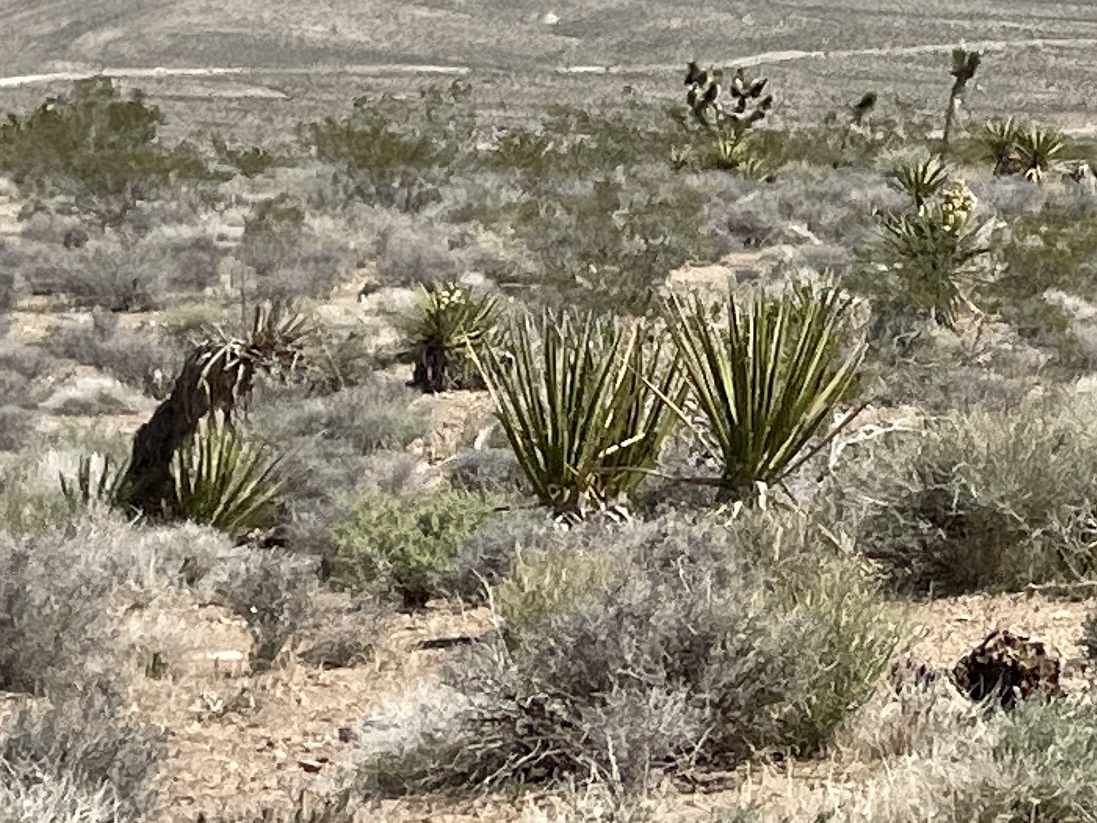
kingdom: Plantae
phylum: Tracheophyta
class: Liliopsida
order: Asparagales
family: Asparagaceae
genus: Yucca
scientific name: Yucca schidigera
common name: Mojave yucca
